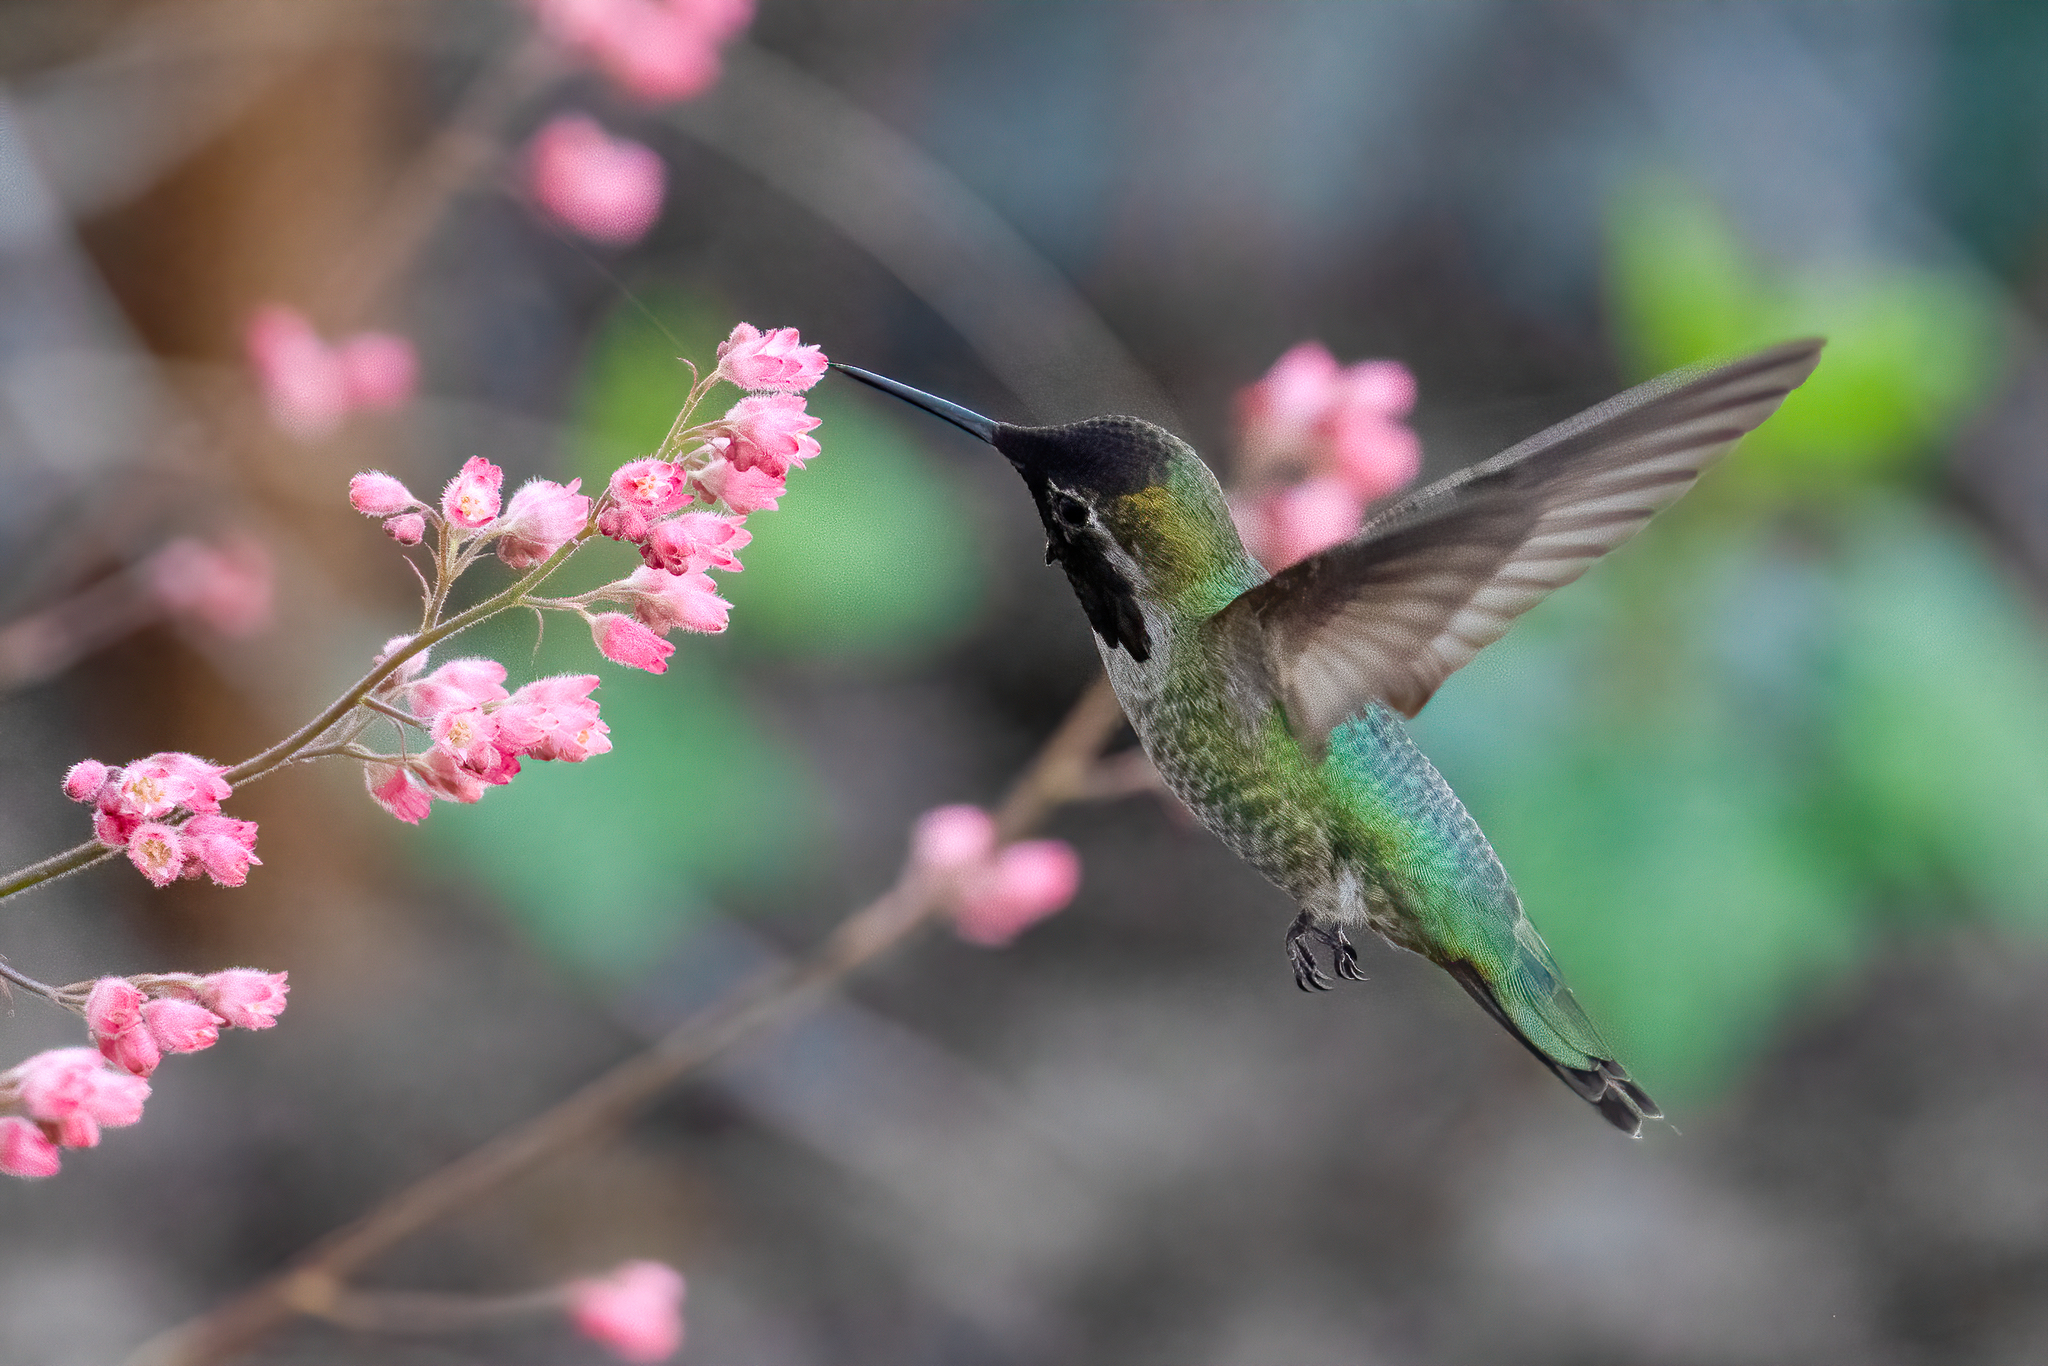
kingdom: Animalia
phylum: Chordata
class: Aves
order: Apodiformes
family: Trochilidae
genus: Calypte
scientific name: Calypte anna
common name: Anna's hummingbird
